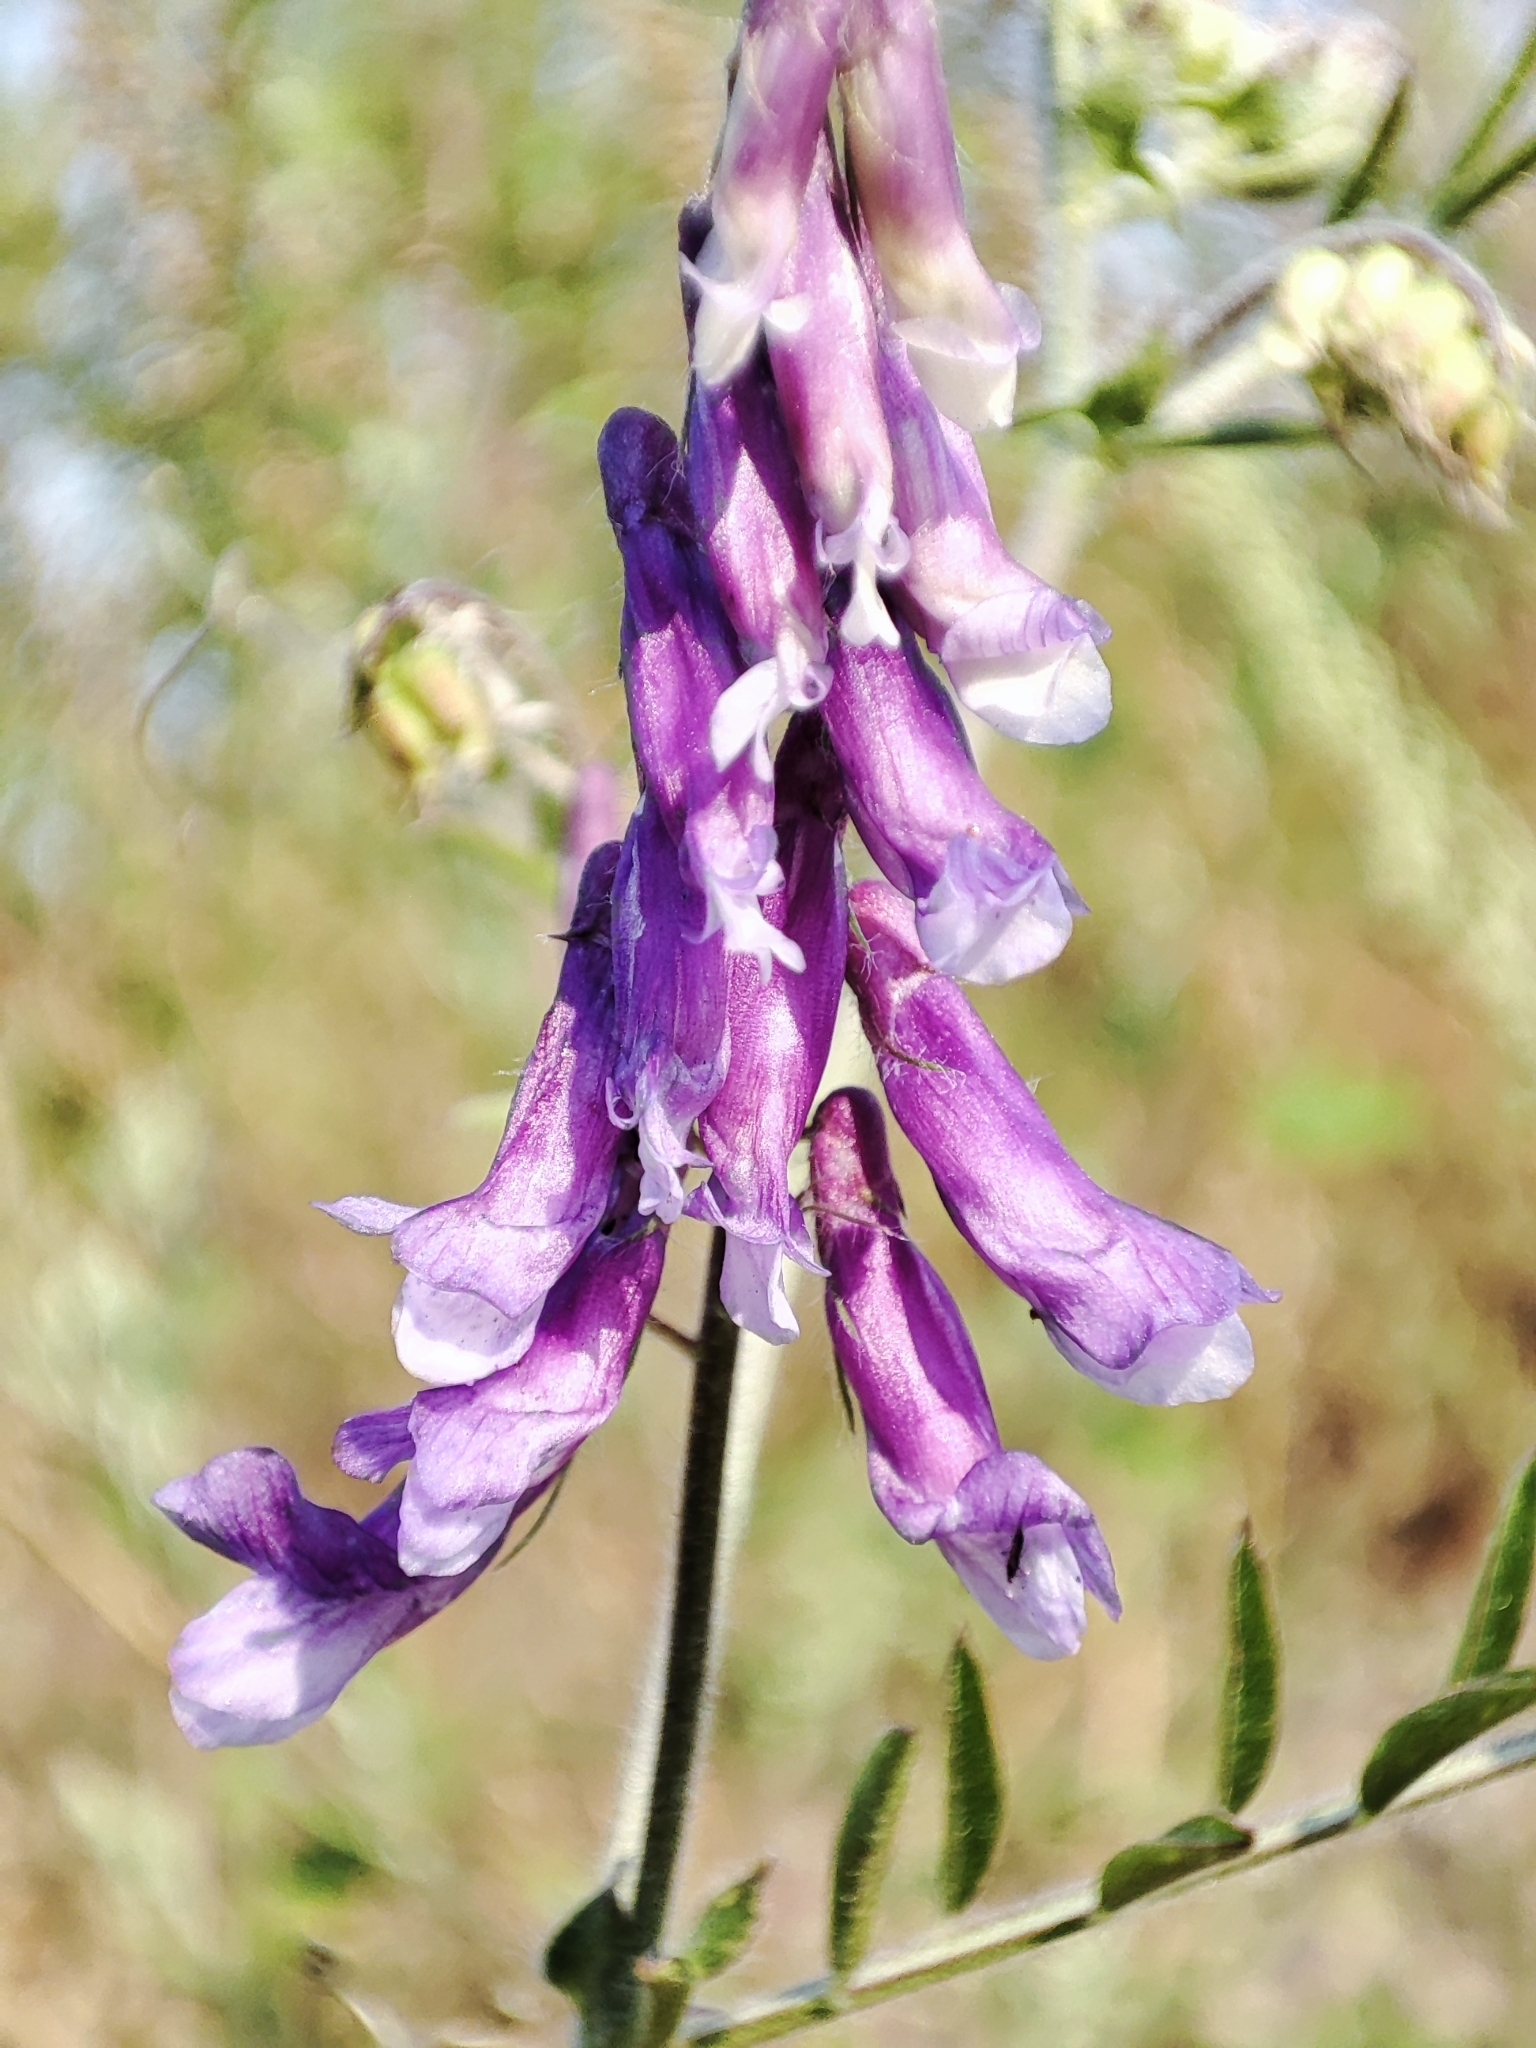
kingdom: Plantae
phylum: Tracheophyta
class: Magnoliopsida
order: Fabales
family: Fabaceae
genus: Vicia
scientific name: Vicia villosa
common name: Fodder vetch
